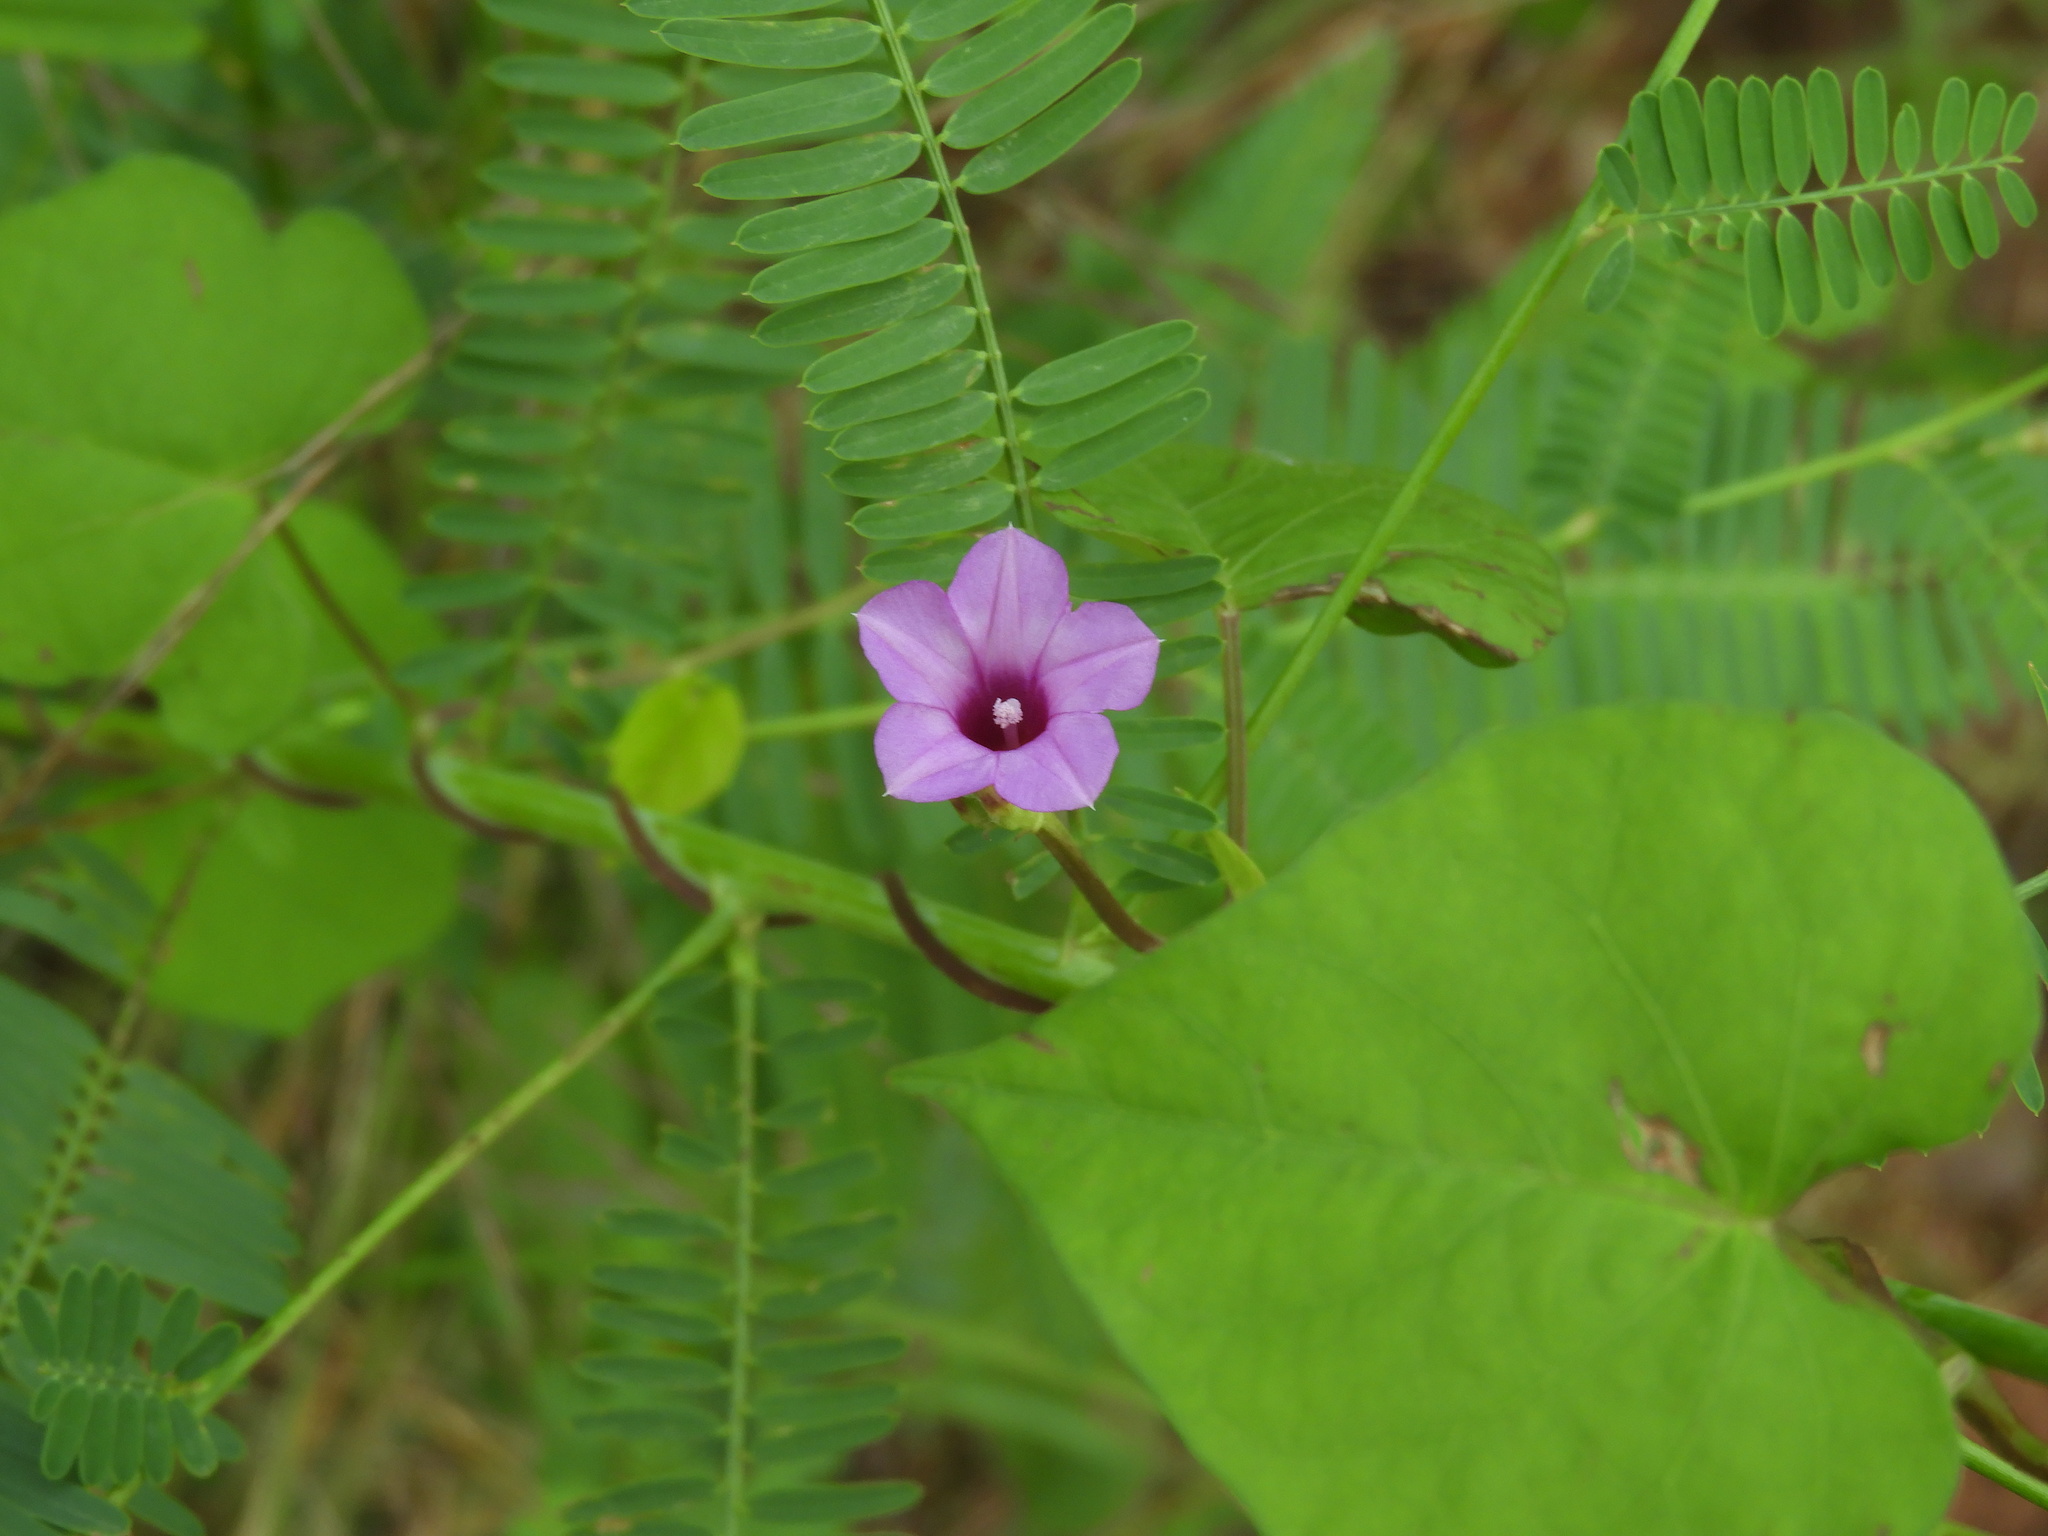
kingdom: Plantae
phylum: Tracheophyta
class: Magnoliopsida
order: Solanales
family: Convolvulaceae
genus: Ipomoea
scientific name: Ipomoea triloba
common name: Little-bell
